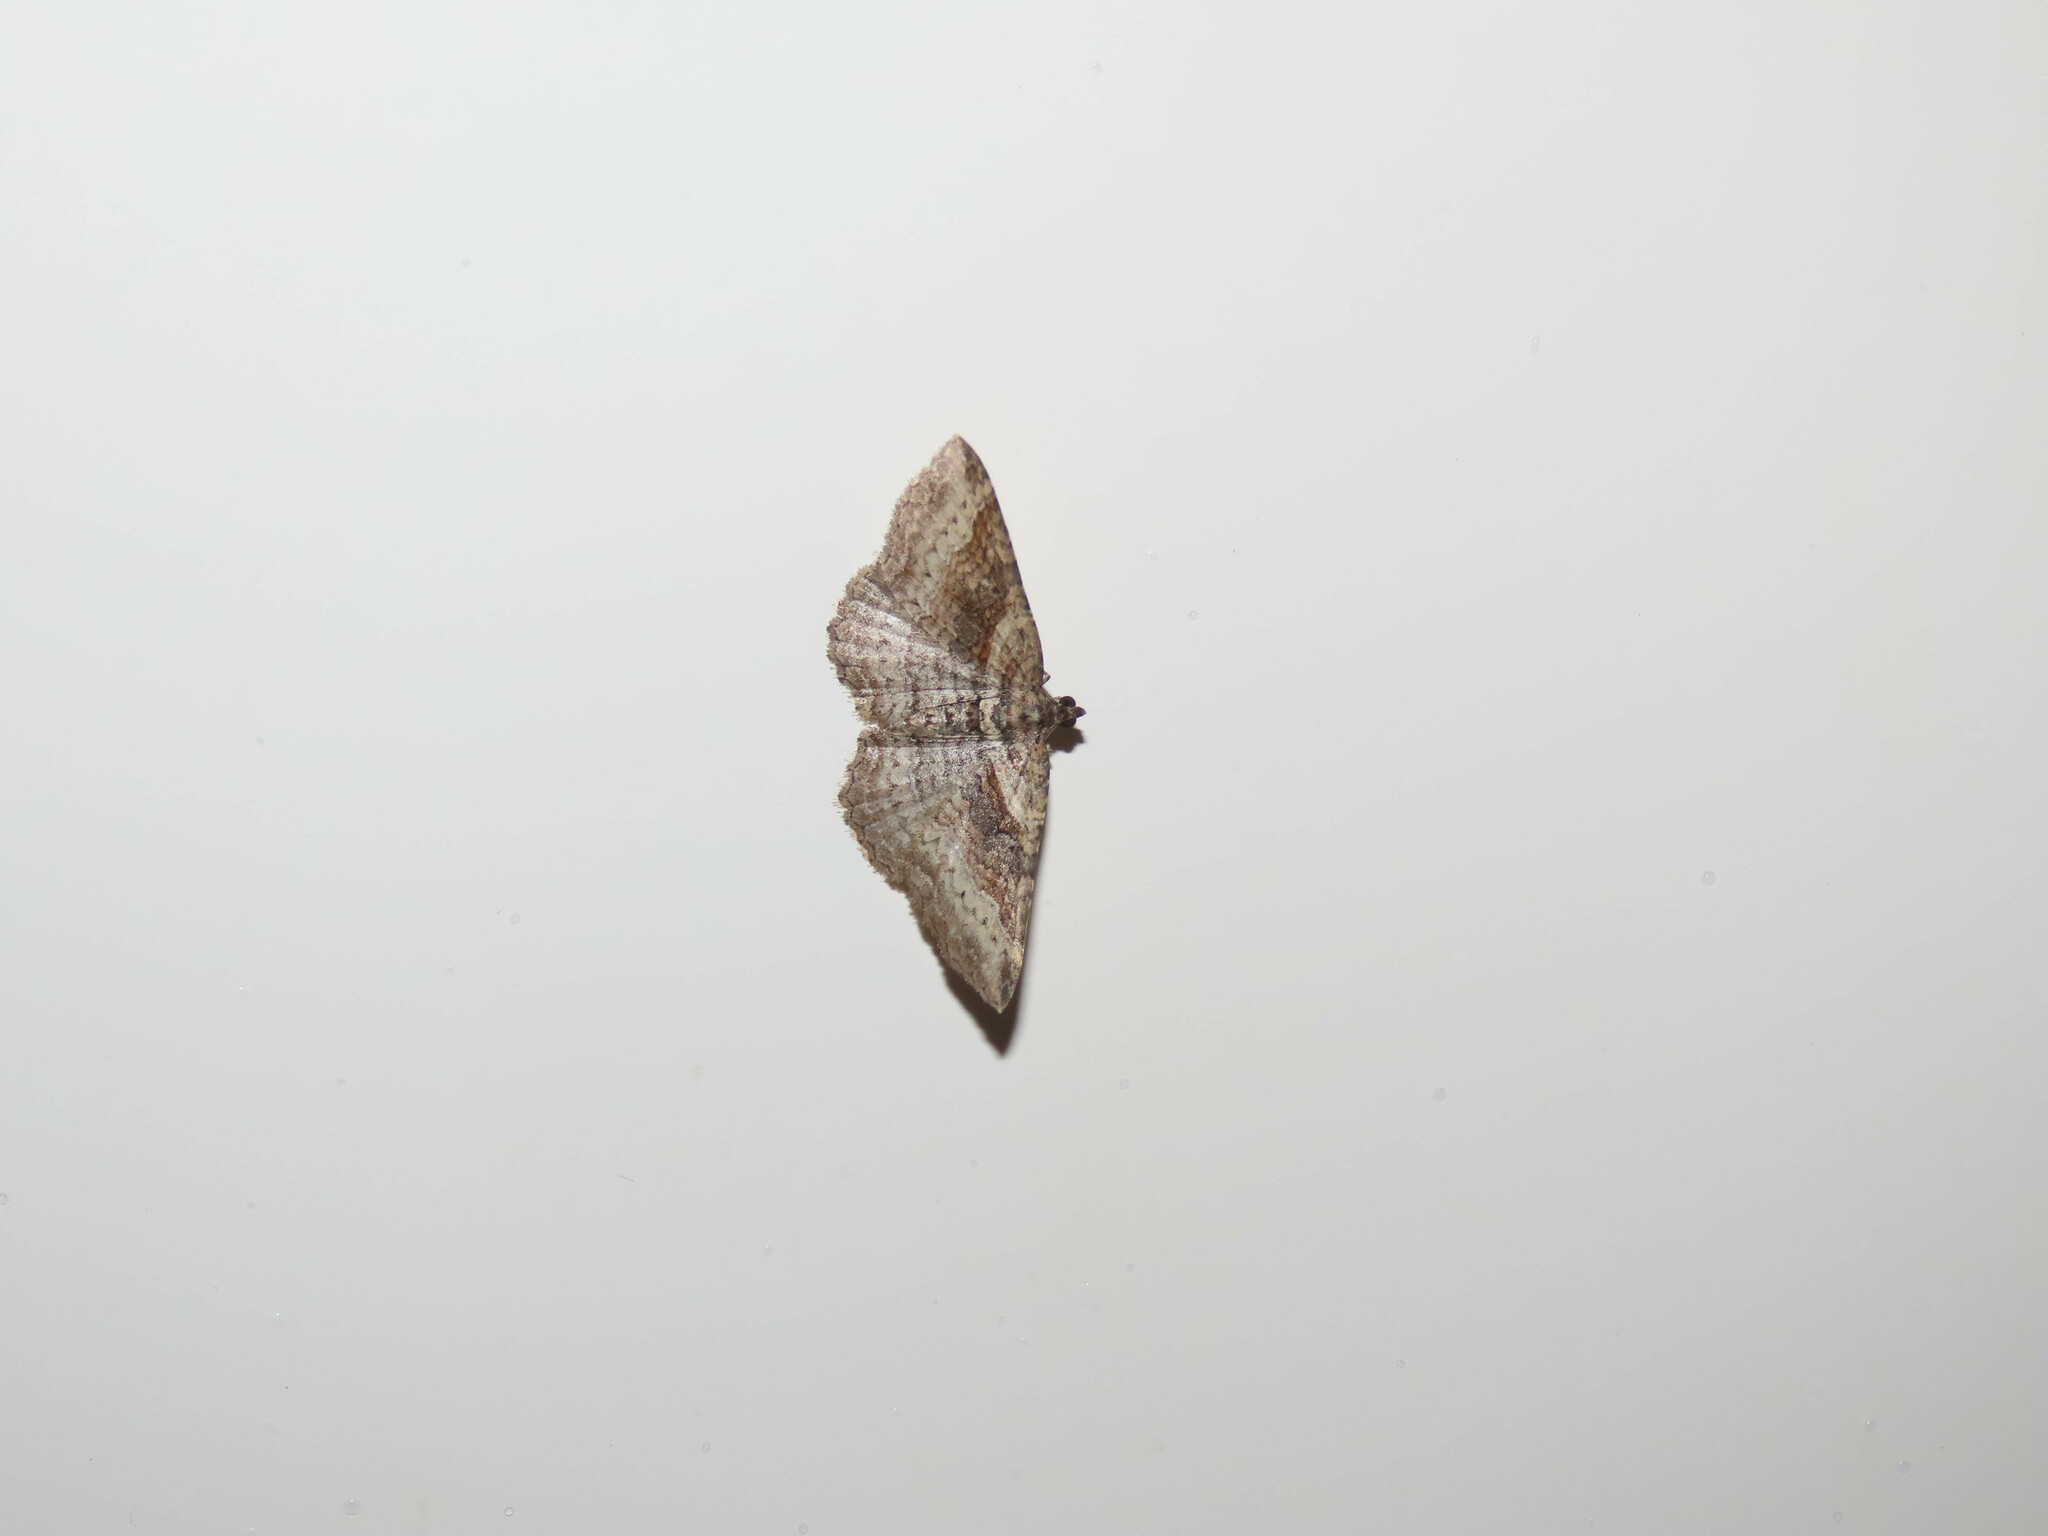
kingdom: Animalia
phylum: Arthropoda
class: Insecta
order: Lepidoptera
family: Geometridae
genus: Costaconvexa
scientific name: Costaconvexa centrostrigaria
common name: Bent-line carpet
